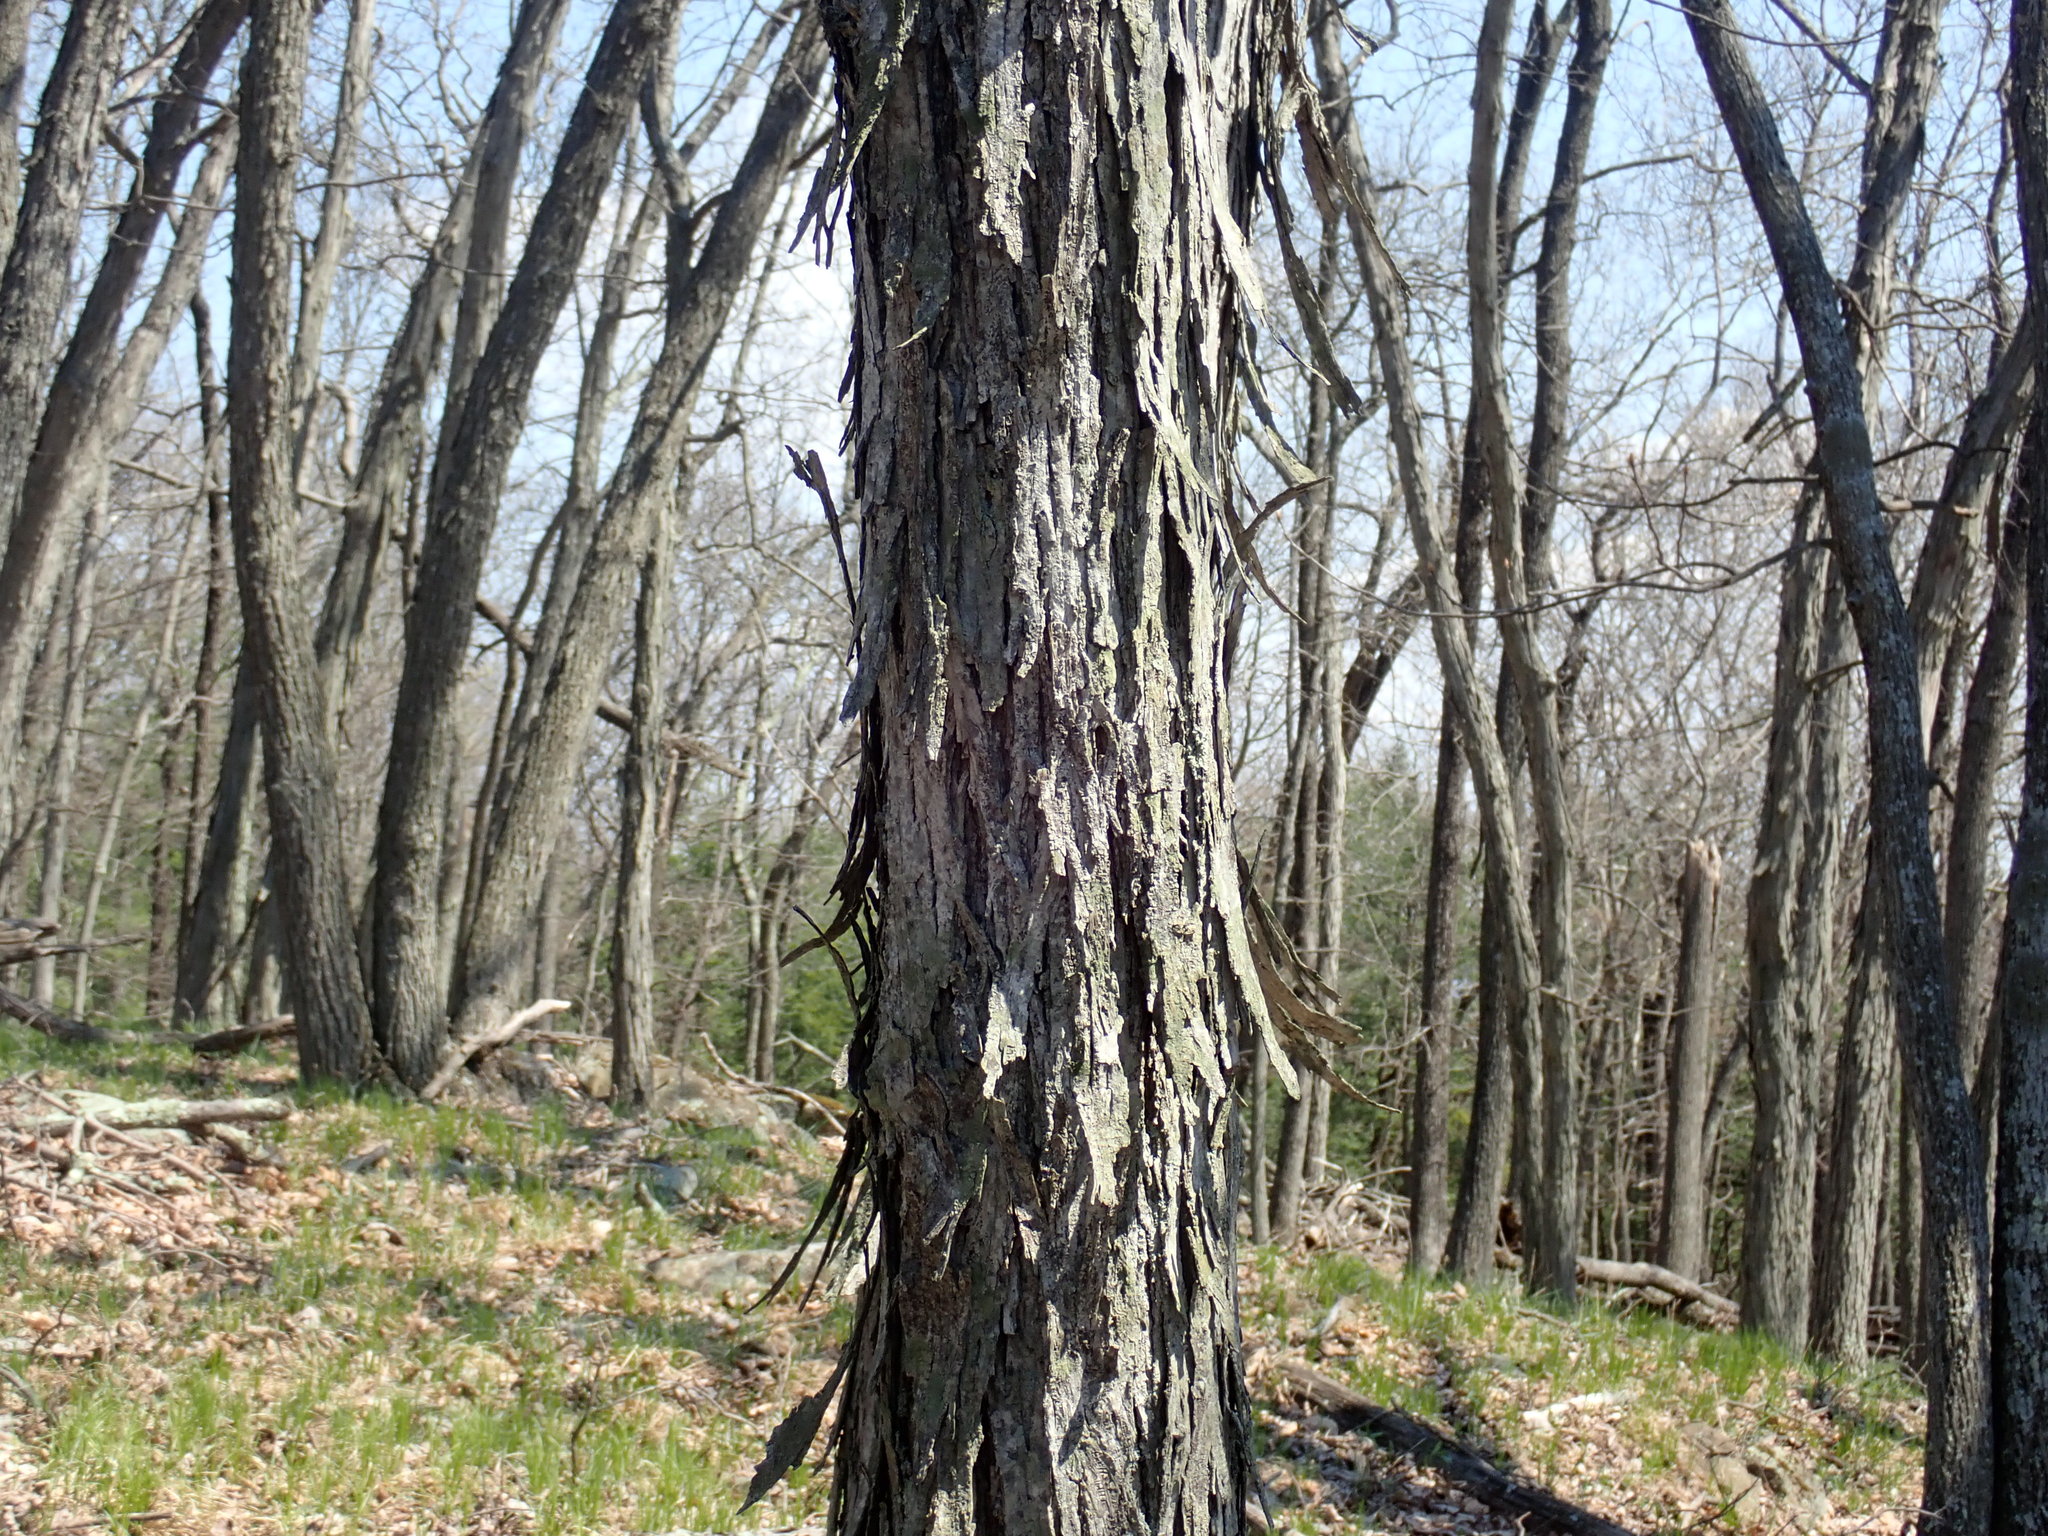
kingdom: Plantae
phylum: Tracheophyta
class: Magnoliopsida
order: Fagales
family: Juglandaceae
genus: Carya
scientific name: Carya ovata
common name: Shagbark hickory
